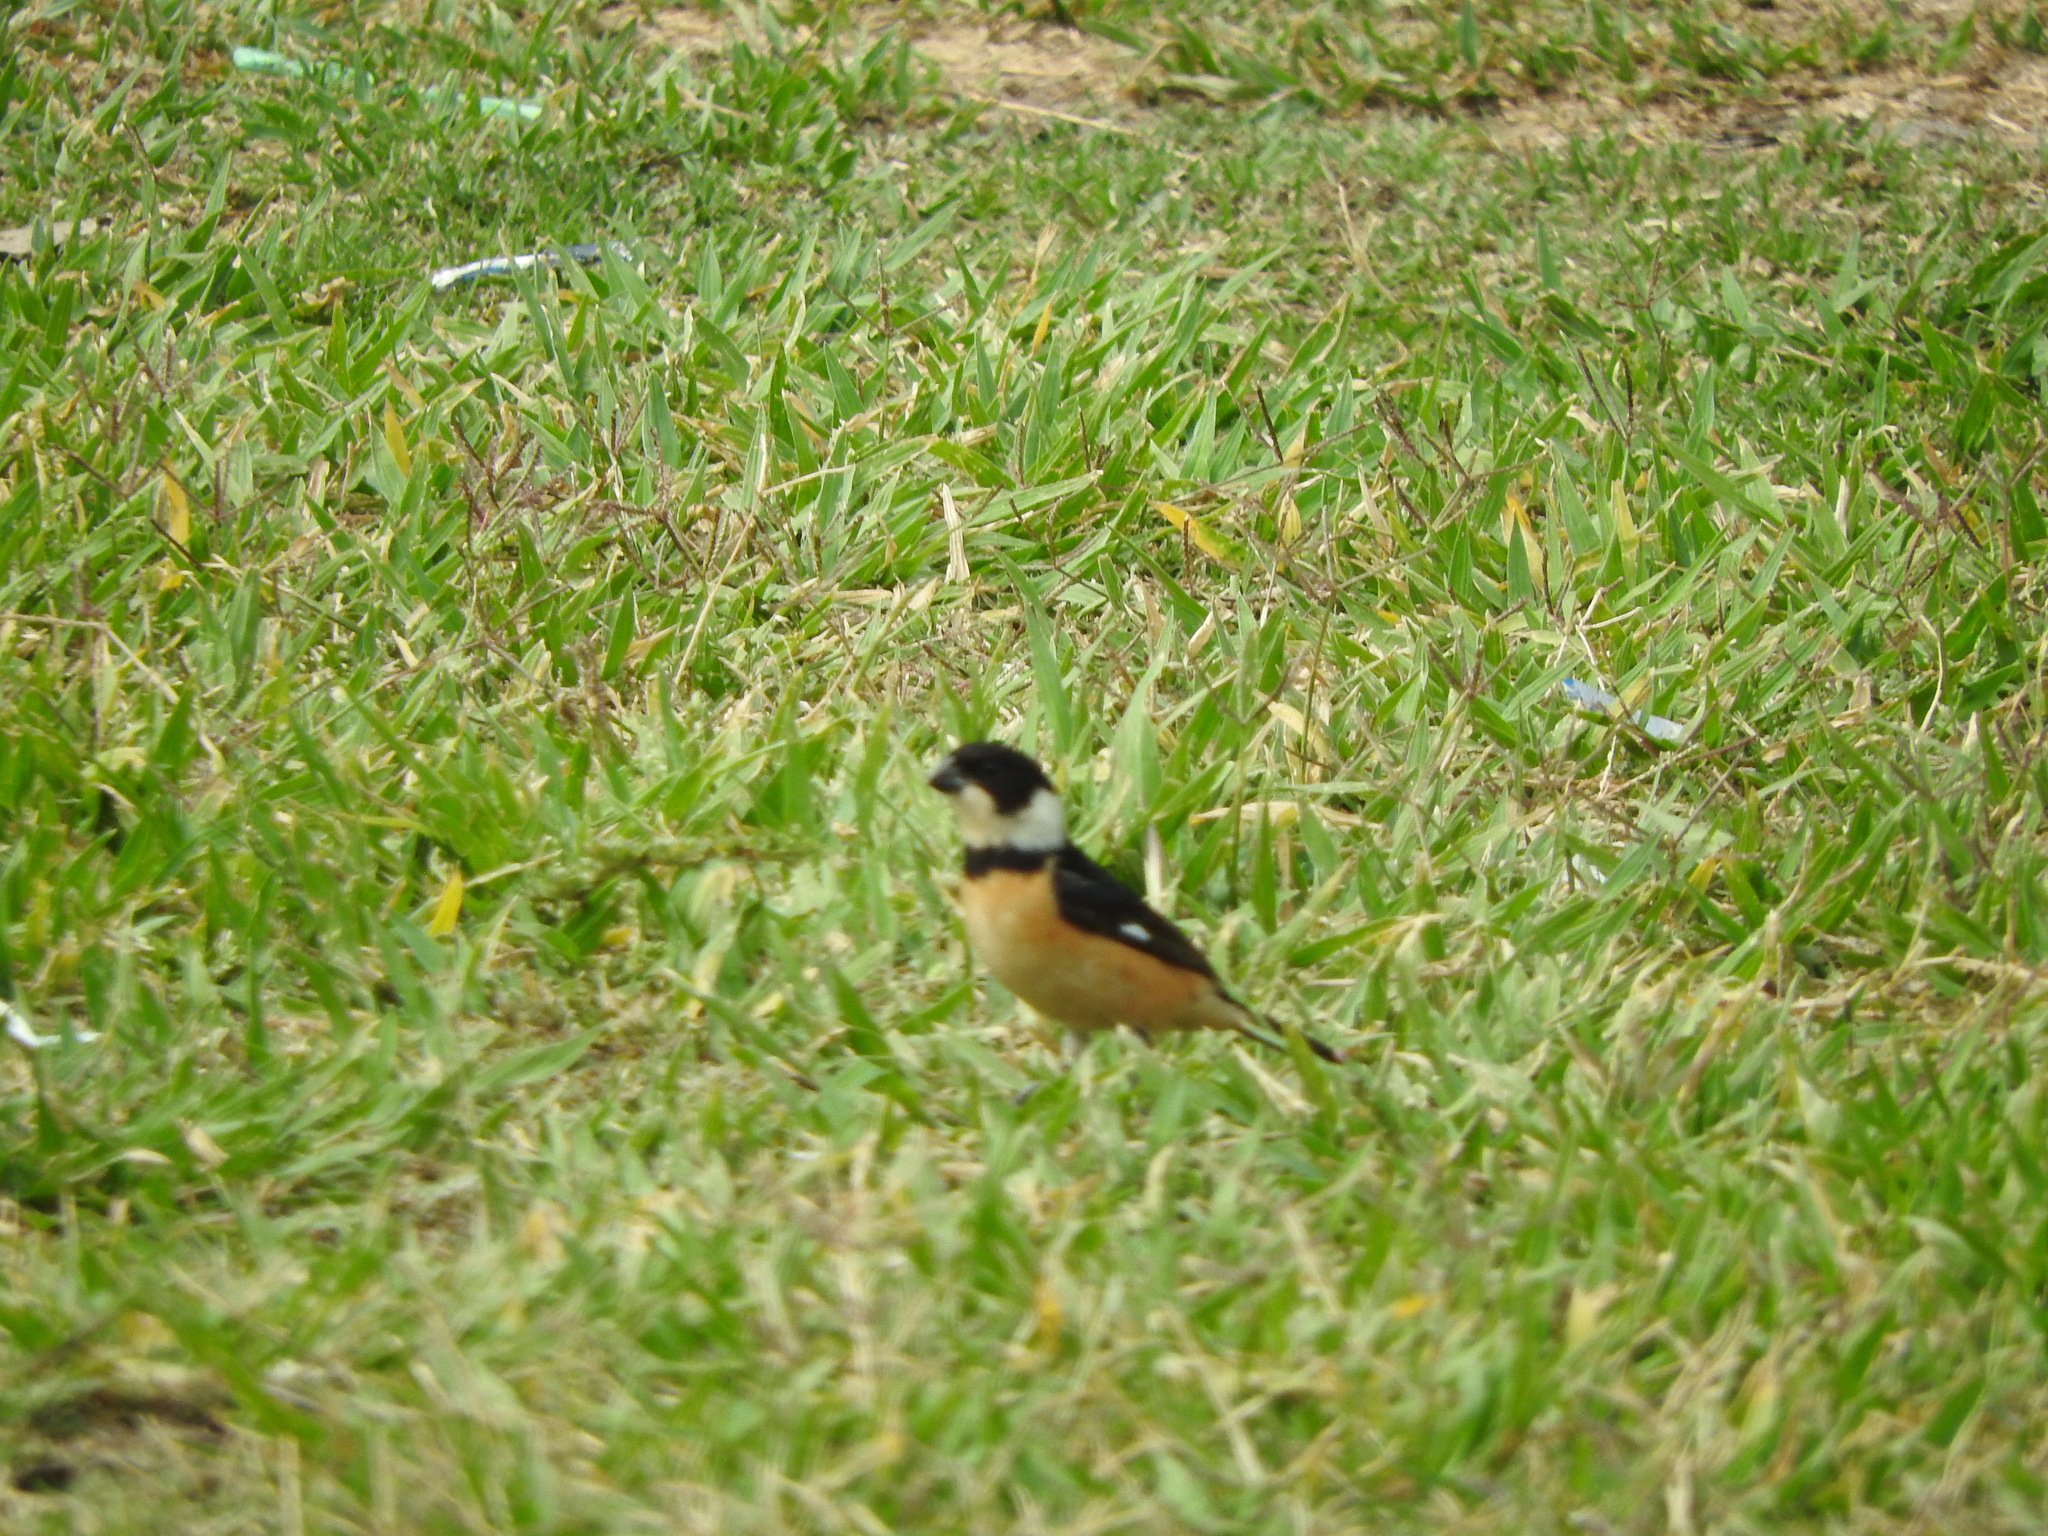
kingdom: Animalia
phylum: Chordata
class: Aves
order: Passeriformes
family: Thraupidae
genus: Sporophila
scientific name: Sporophila torqueola
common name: White-collared seedeater
